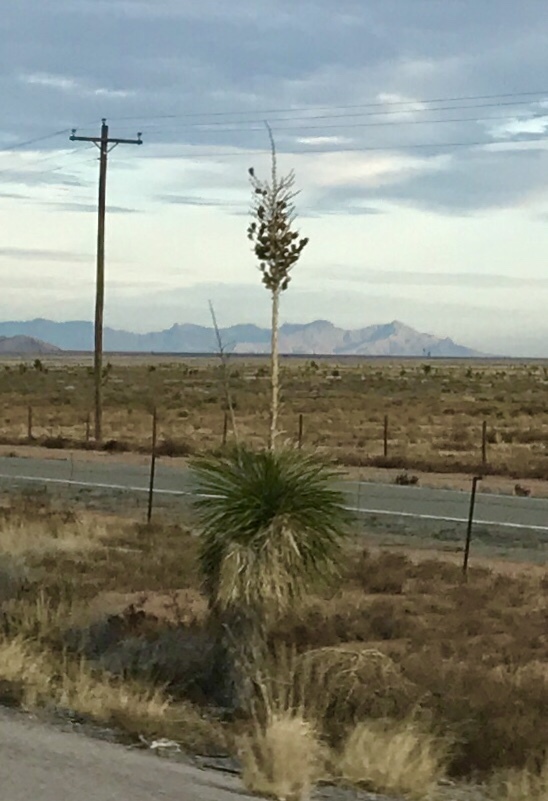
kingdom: Plantae
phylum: Tracheophyta
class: Liliopsida
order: Asparagales
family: Asparagaceae
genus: Yucca
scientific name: Yucca elata
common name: Palmella
